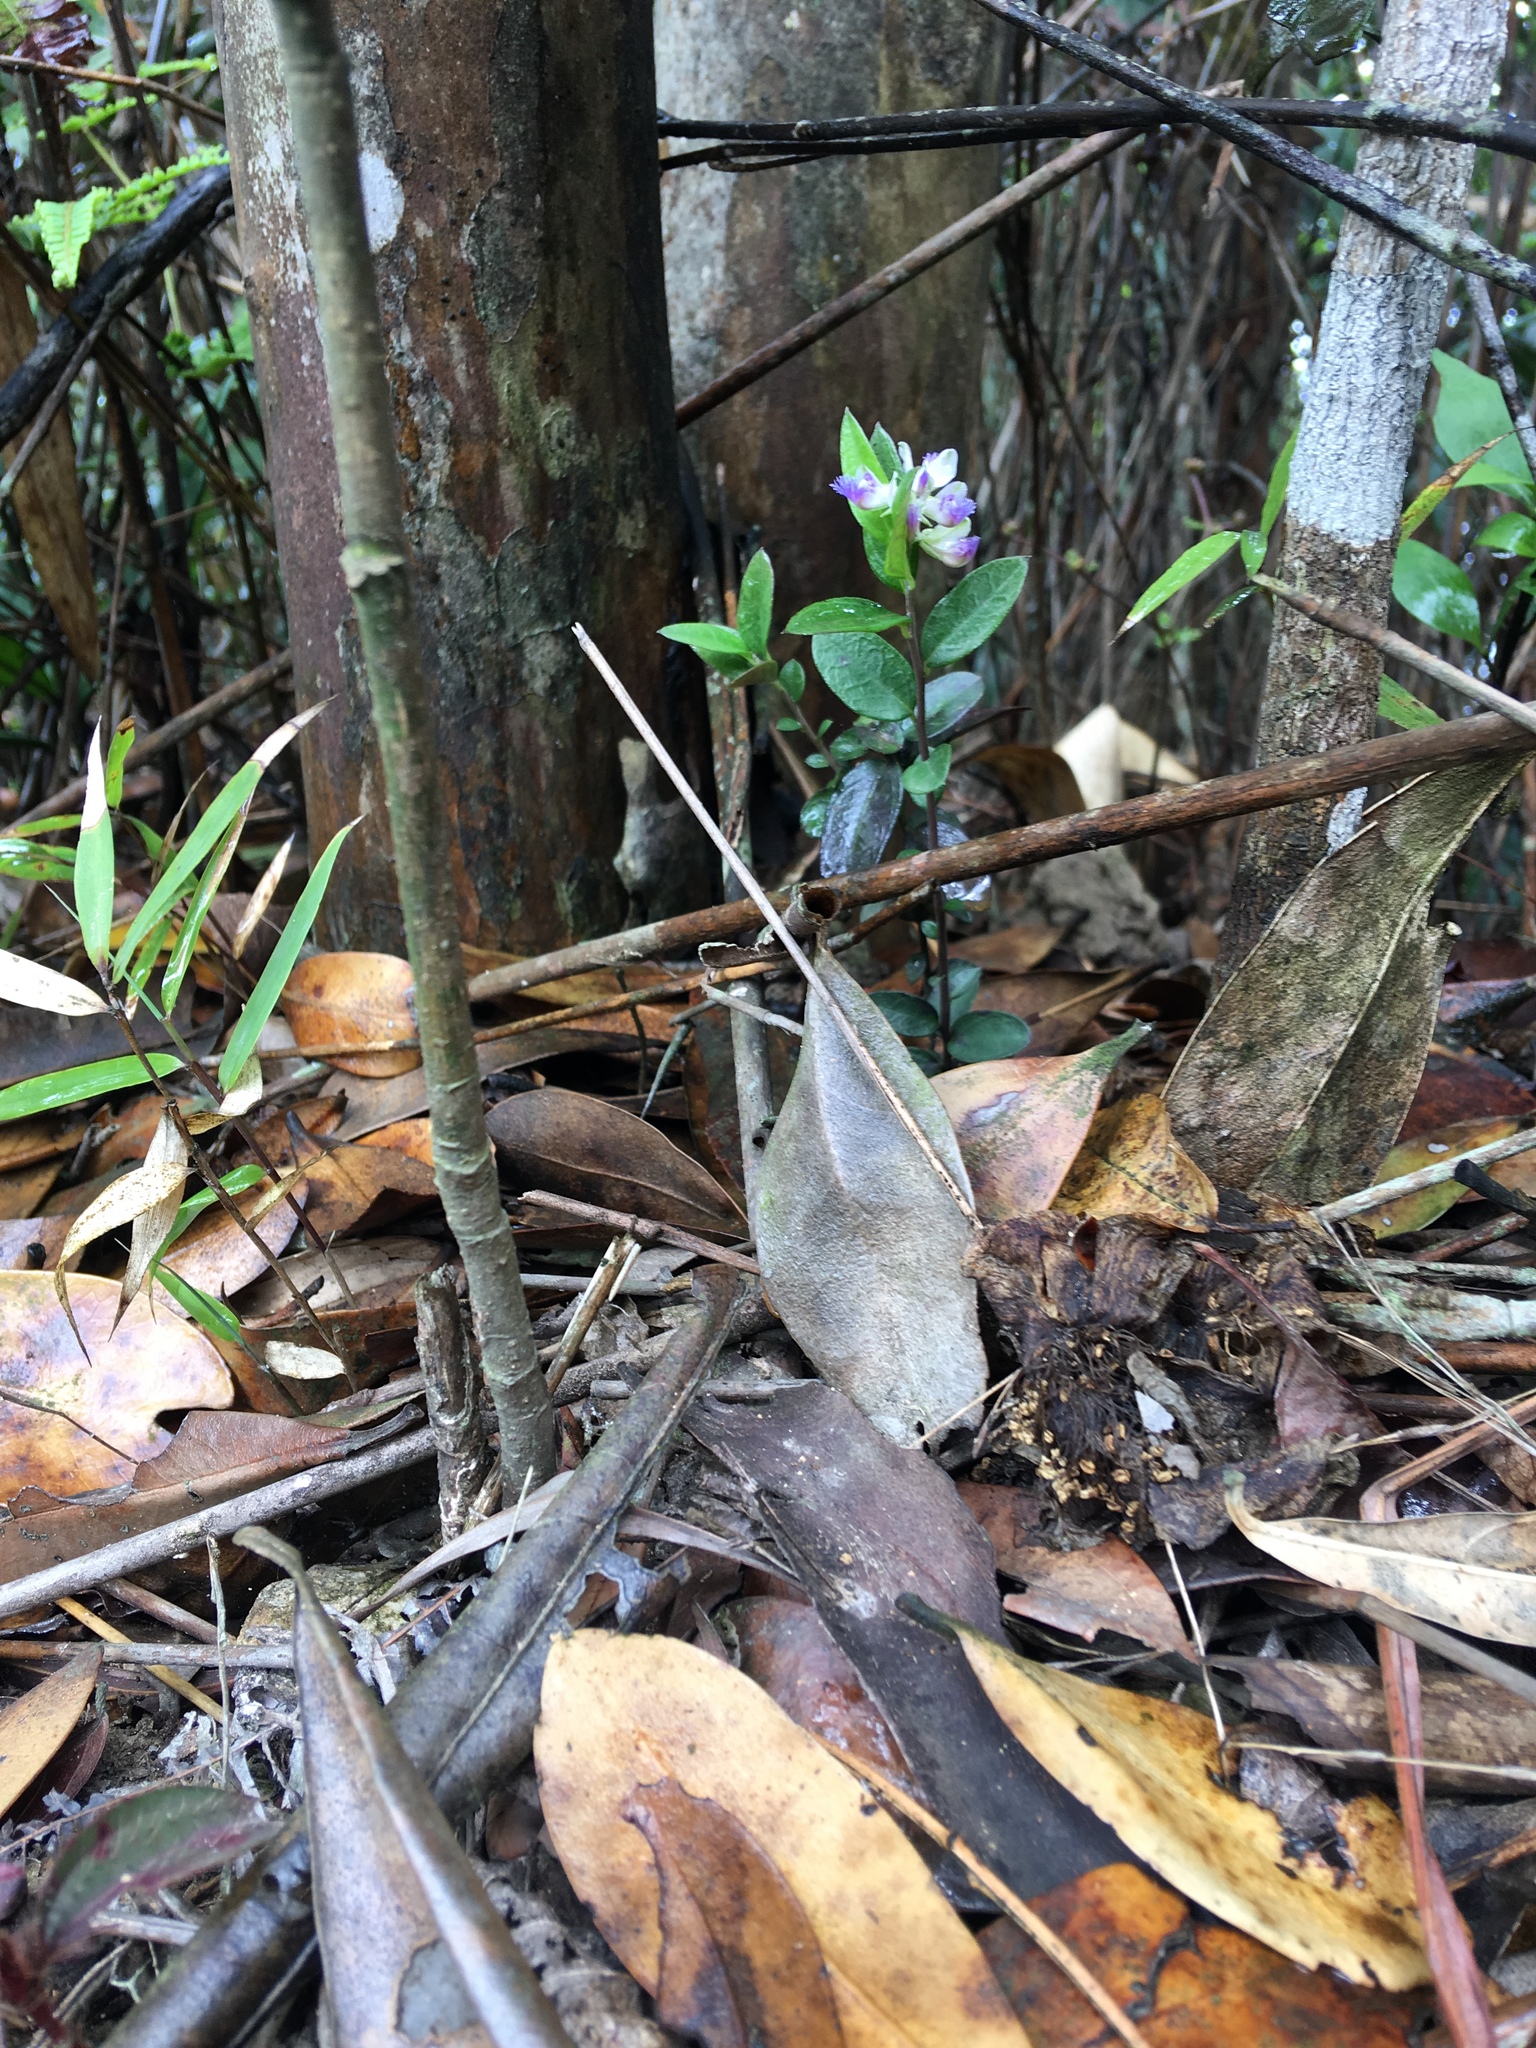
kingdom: Plantae
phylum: Tracheophyta
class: Magnoliopsida
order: Fabales
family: Polygalaceae
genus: Polygala
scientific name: Polygala hongkongensis
